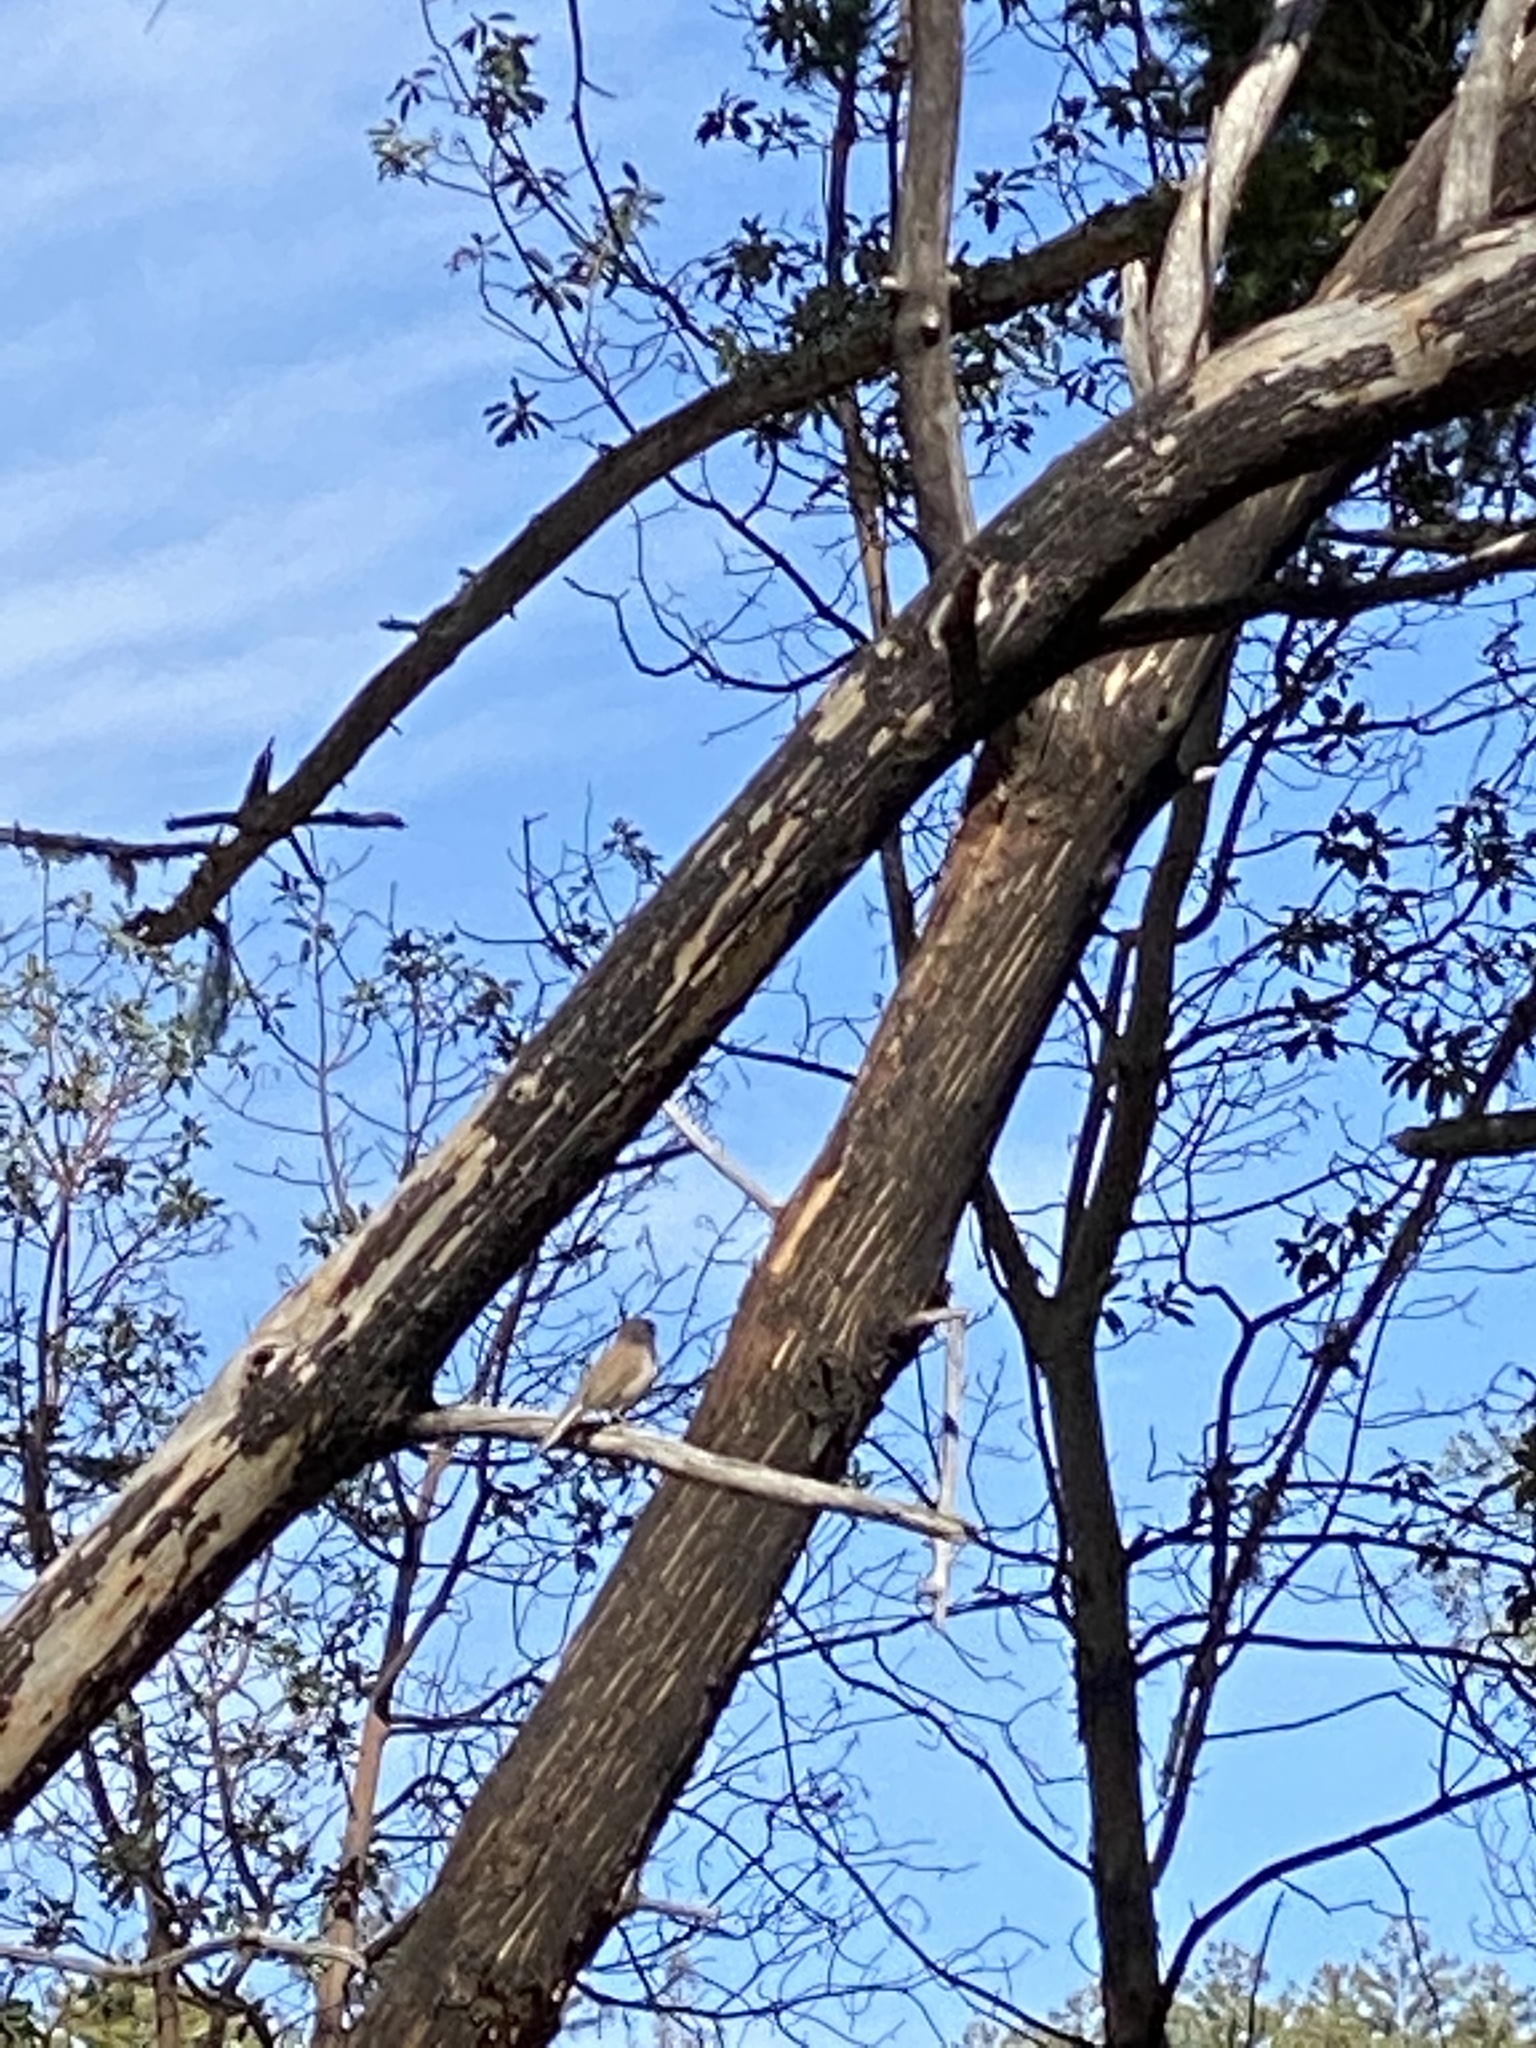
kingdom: Animalia
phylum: Chordata
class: Aves
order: Passeriformes
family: Passerellidae
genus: Junco
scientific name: Junco hyemalis
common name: Dark-eyed junco
